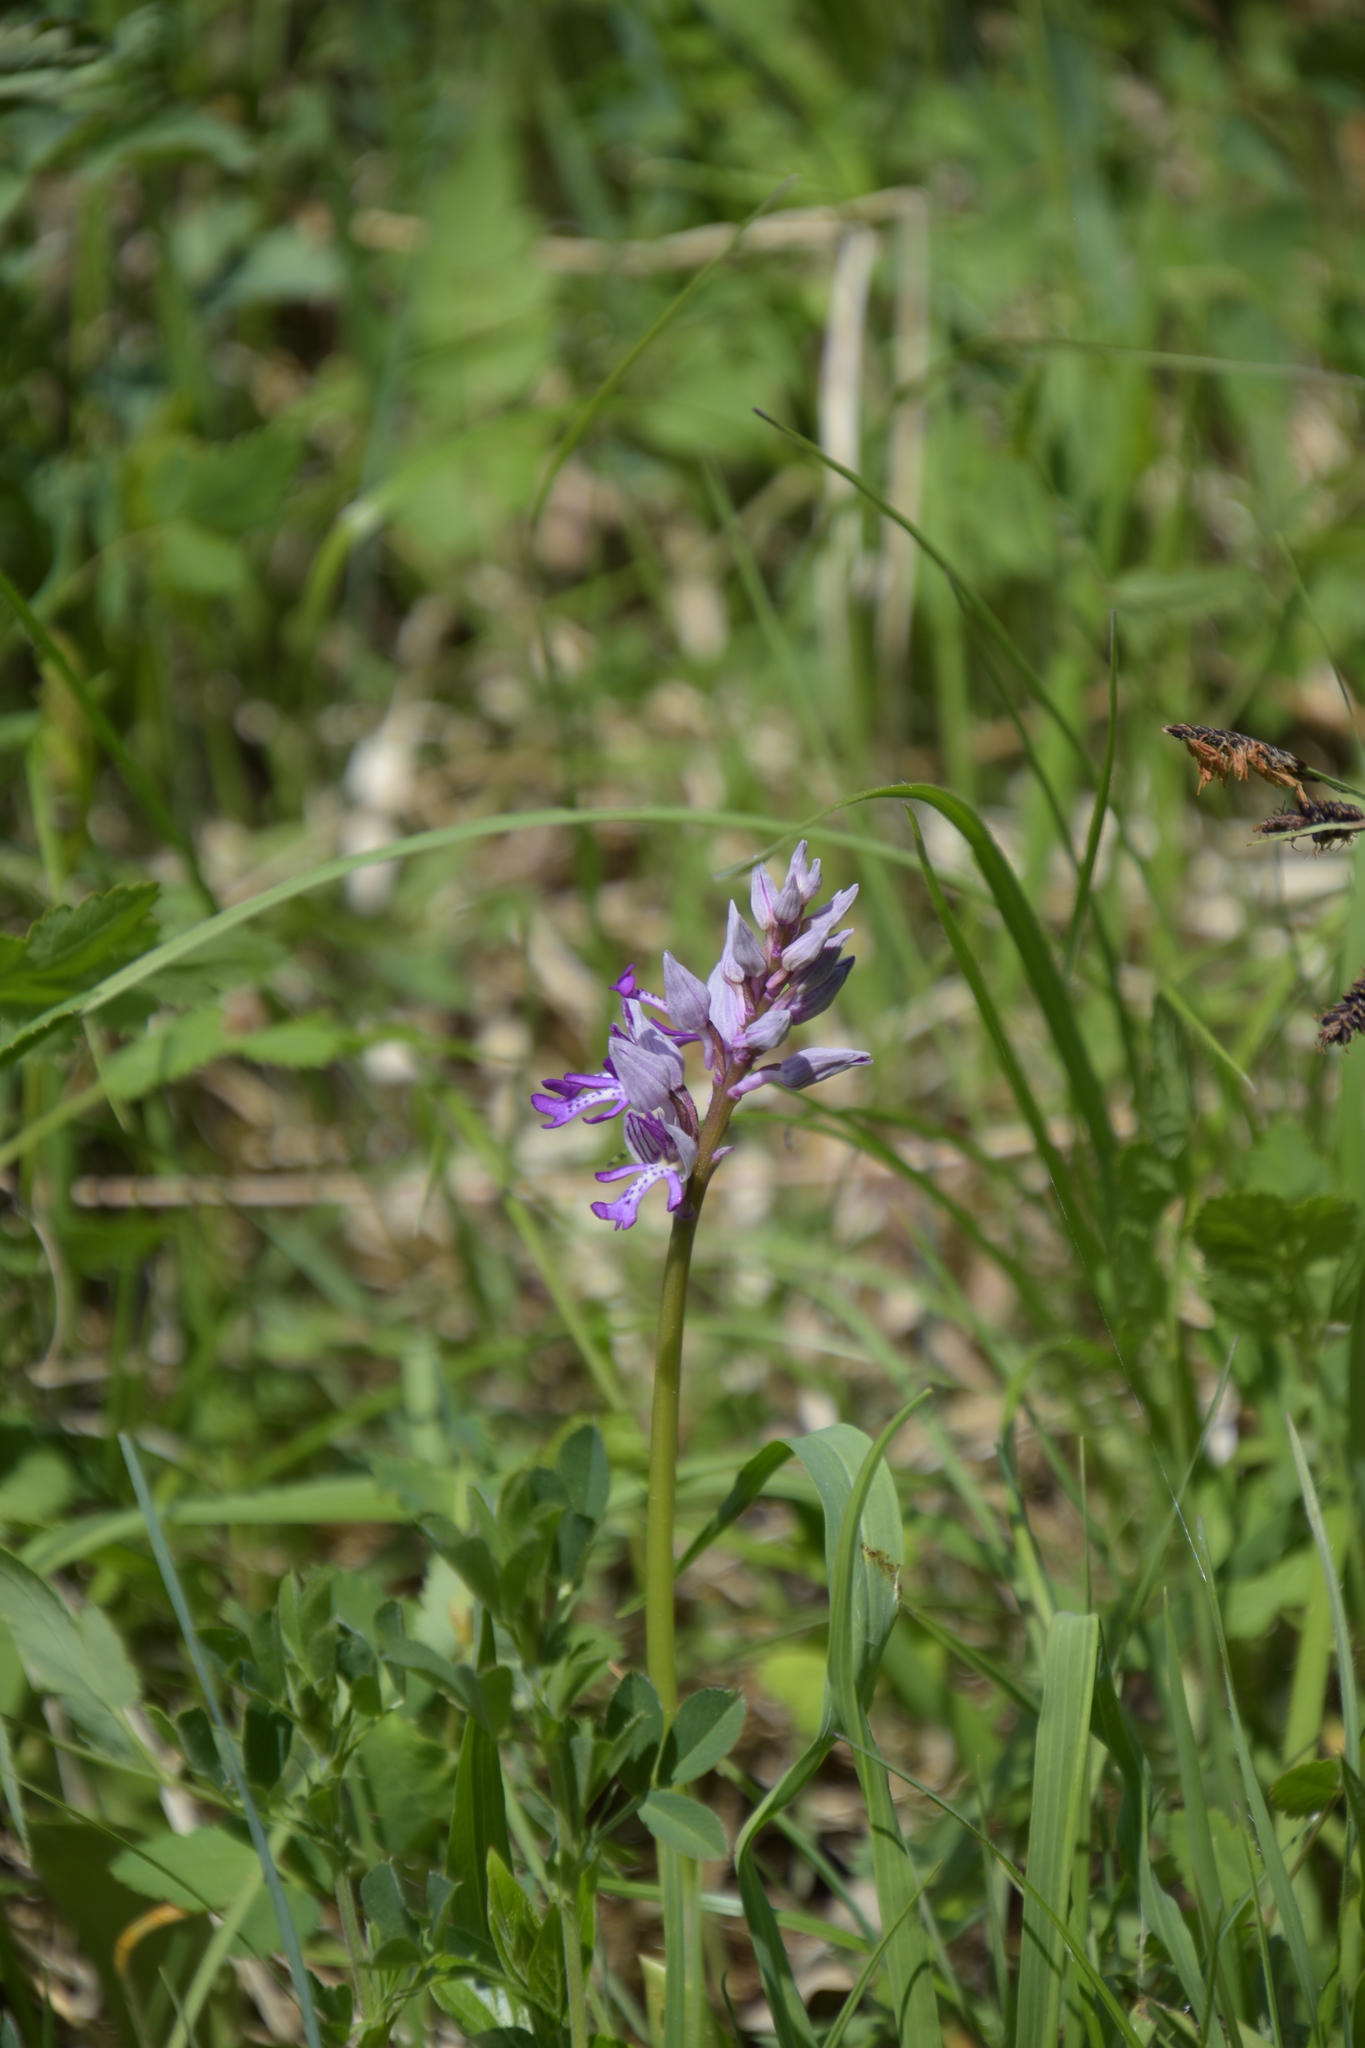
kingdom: Plantae
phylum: Tracheophyta
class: Liliopsida
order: Asparagales
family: Orchidaceae
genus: Orchis
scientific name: Orchis militaris
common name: Military orchid
